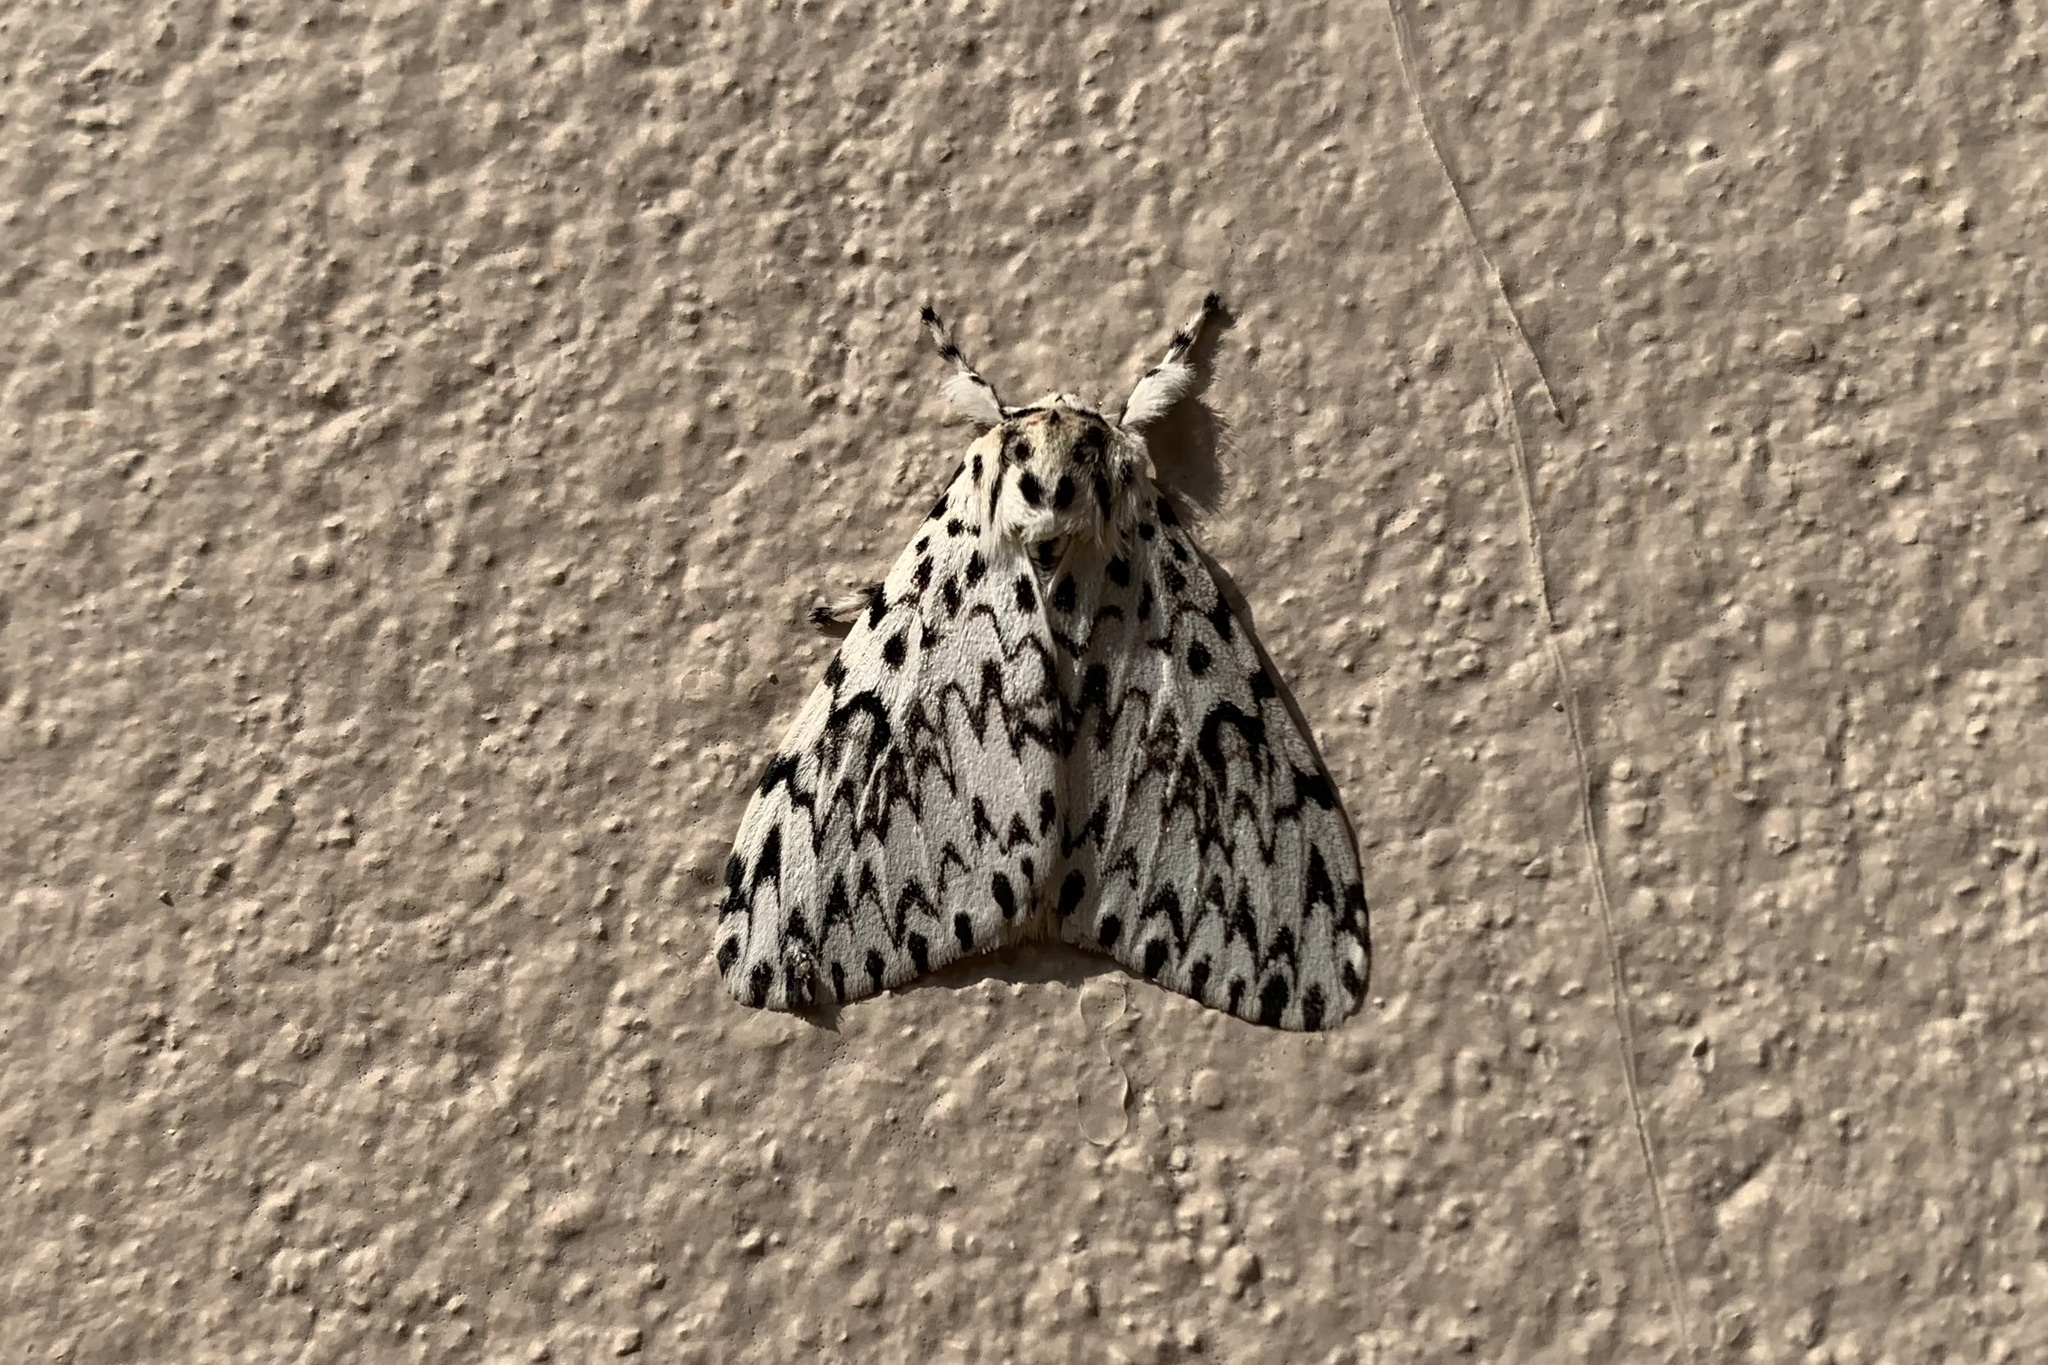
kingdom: Animalia
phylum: Arthropoda
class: Insecta
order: Lepidoptera
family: Erebidae
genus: Lymantria
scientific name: Lymantria singapura
